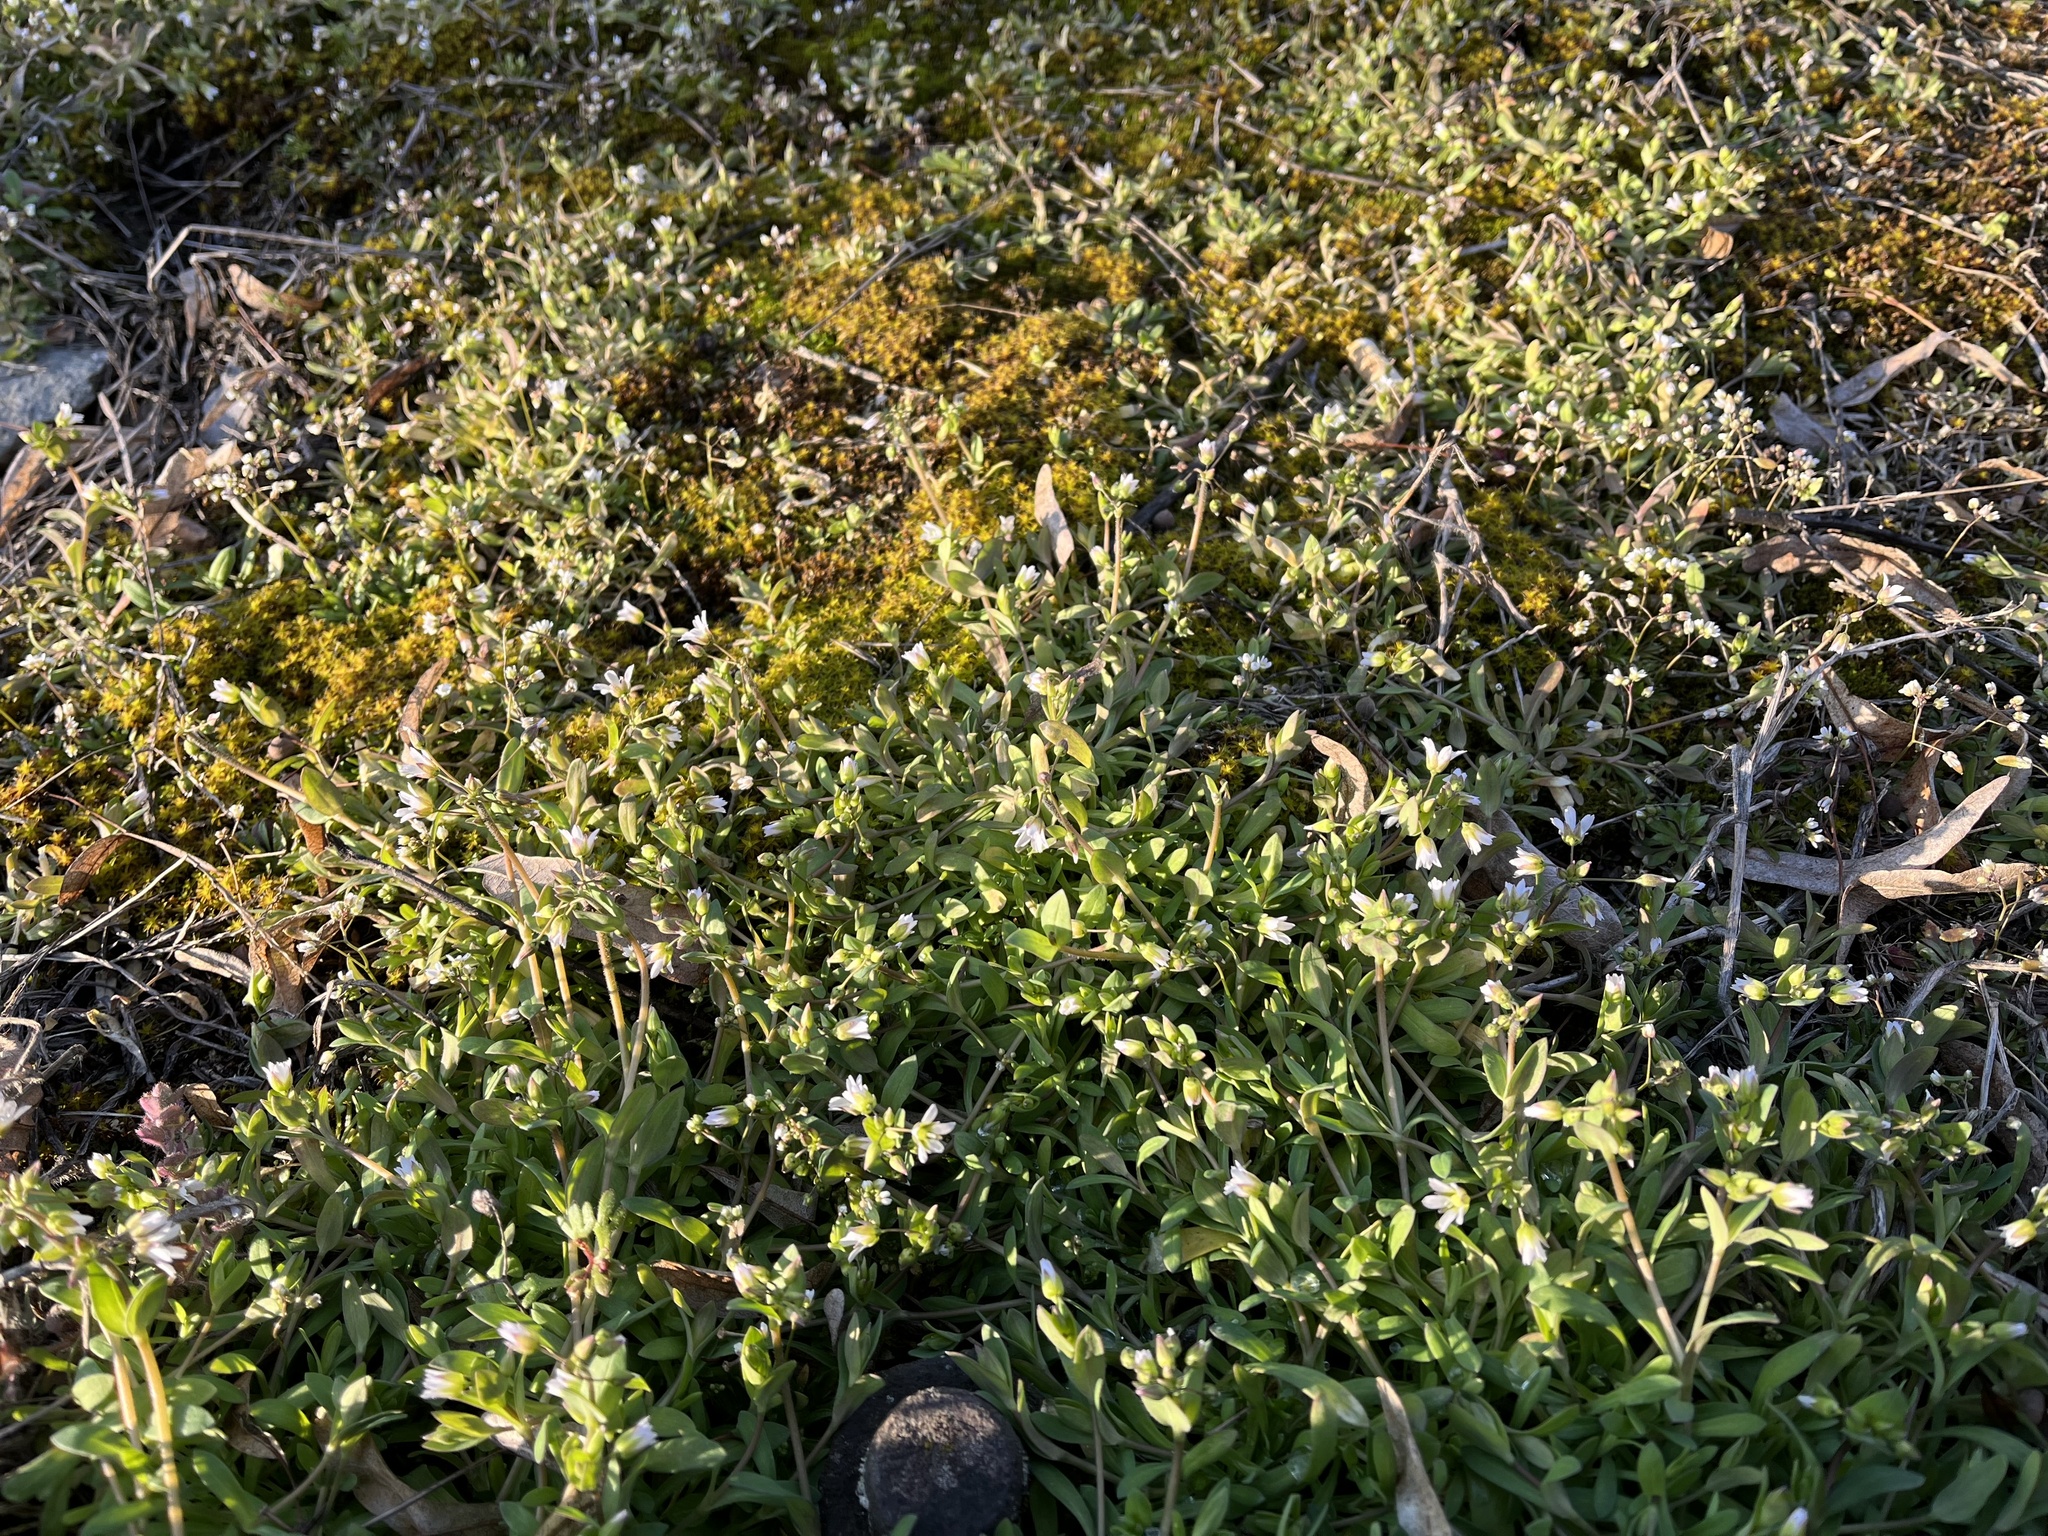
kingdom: Plantae
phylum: Tracheophyta
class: Magnoliopsida
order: Caryophyllales
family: Caryophyllaceae
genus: Holosteum
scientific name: Holosteum umbellatum
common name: Jagged chickweed
